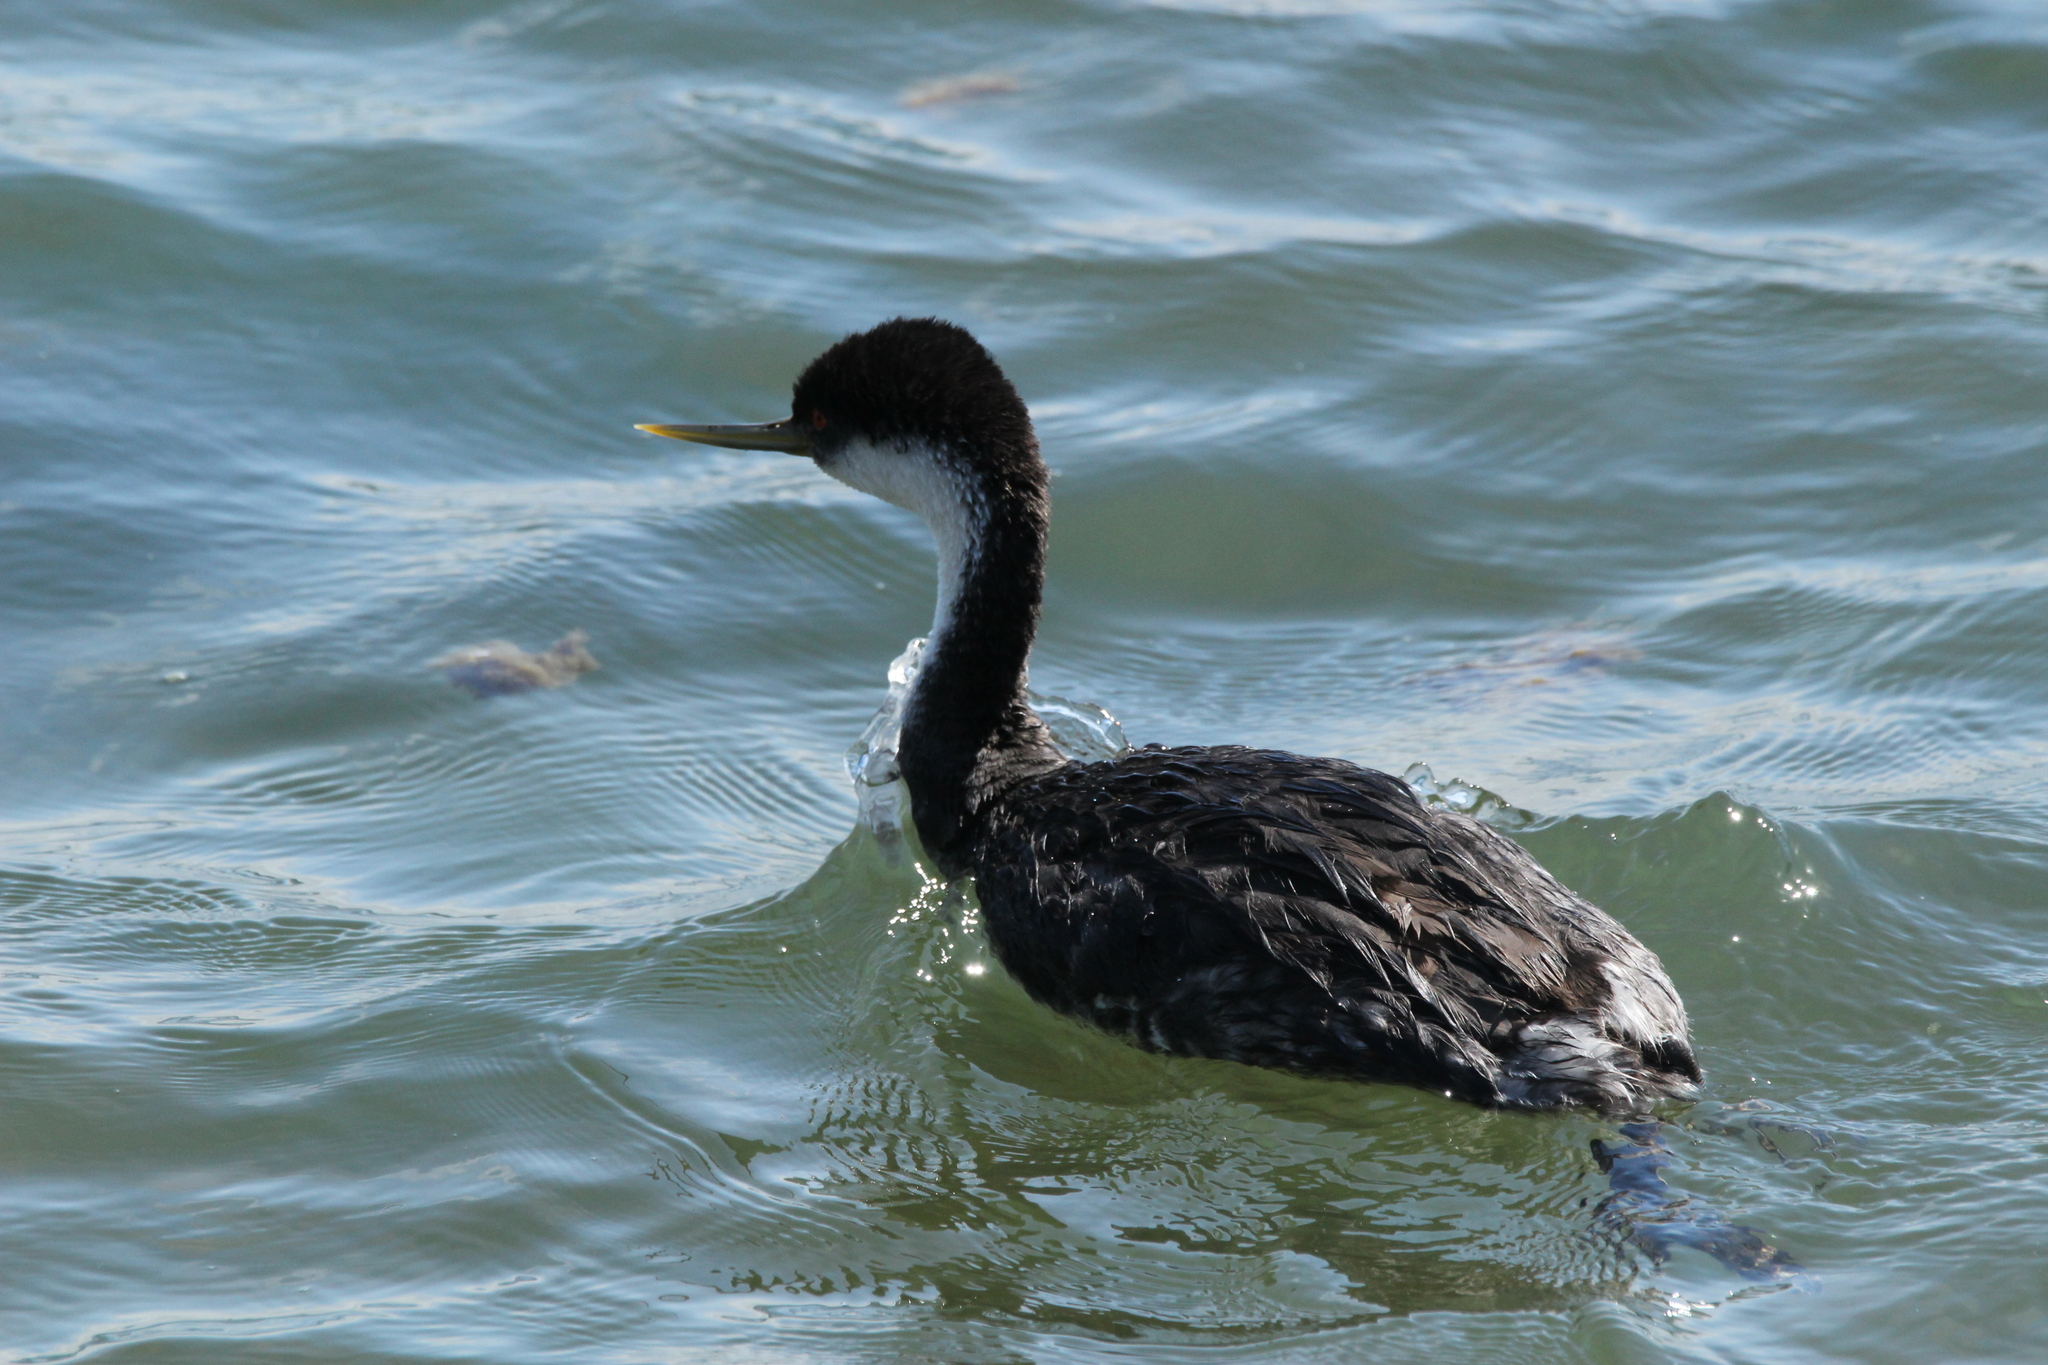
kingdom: Animalia
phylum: Chordata
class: Aves
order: Podicipediformes
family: Podicipedidae
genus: Aechmophorus
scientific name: Aechmophorus occidentalis
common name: Western grebe
